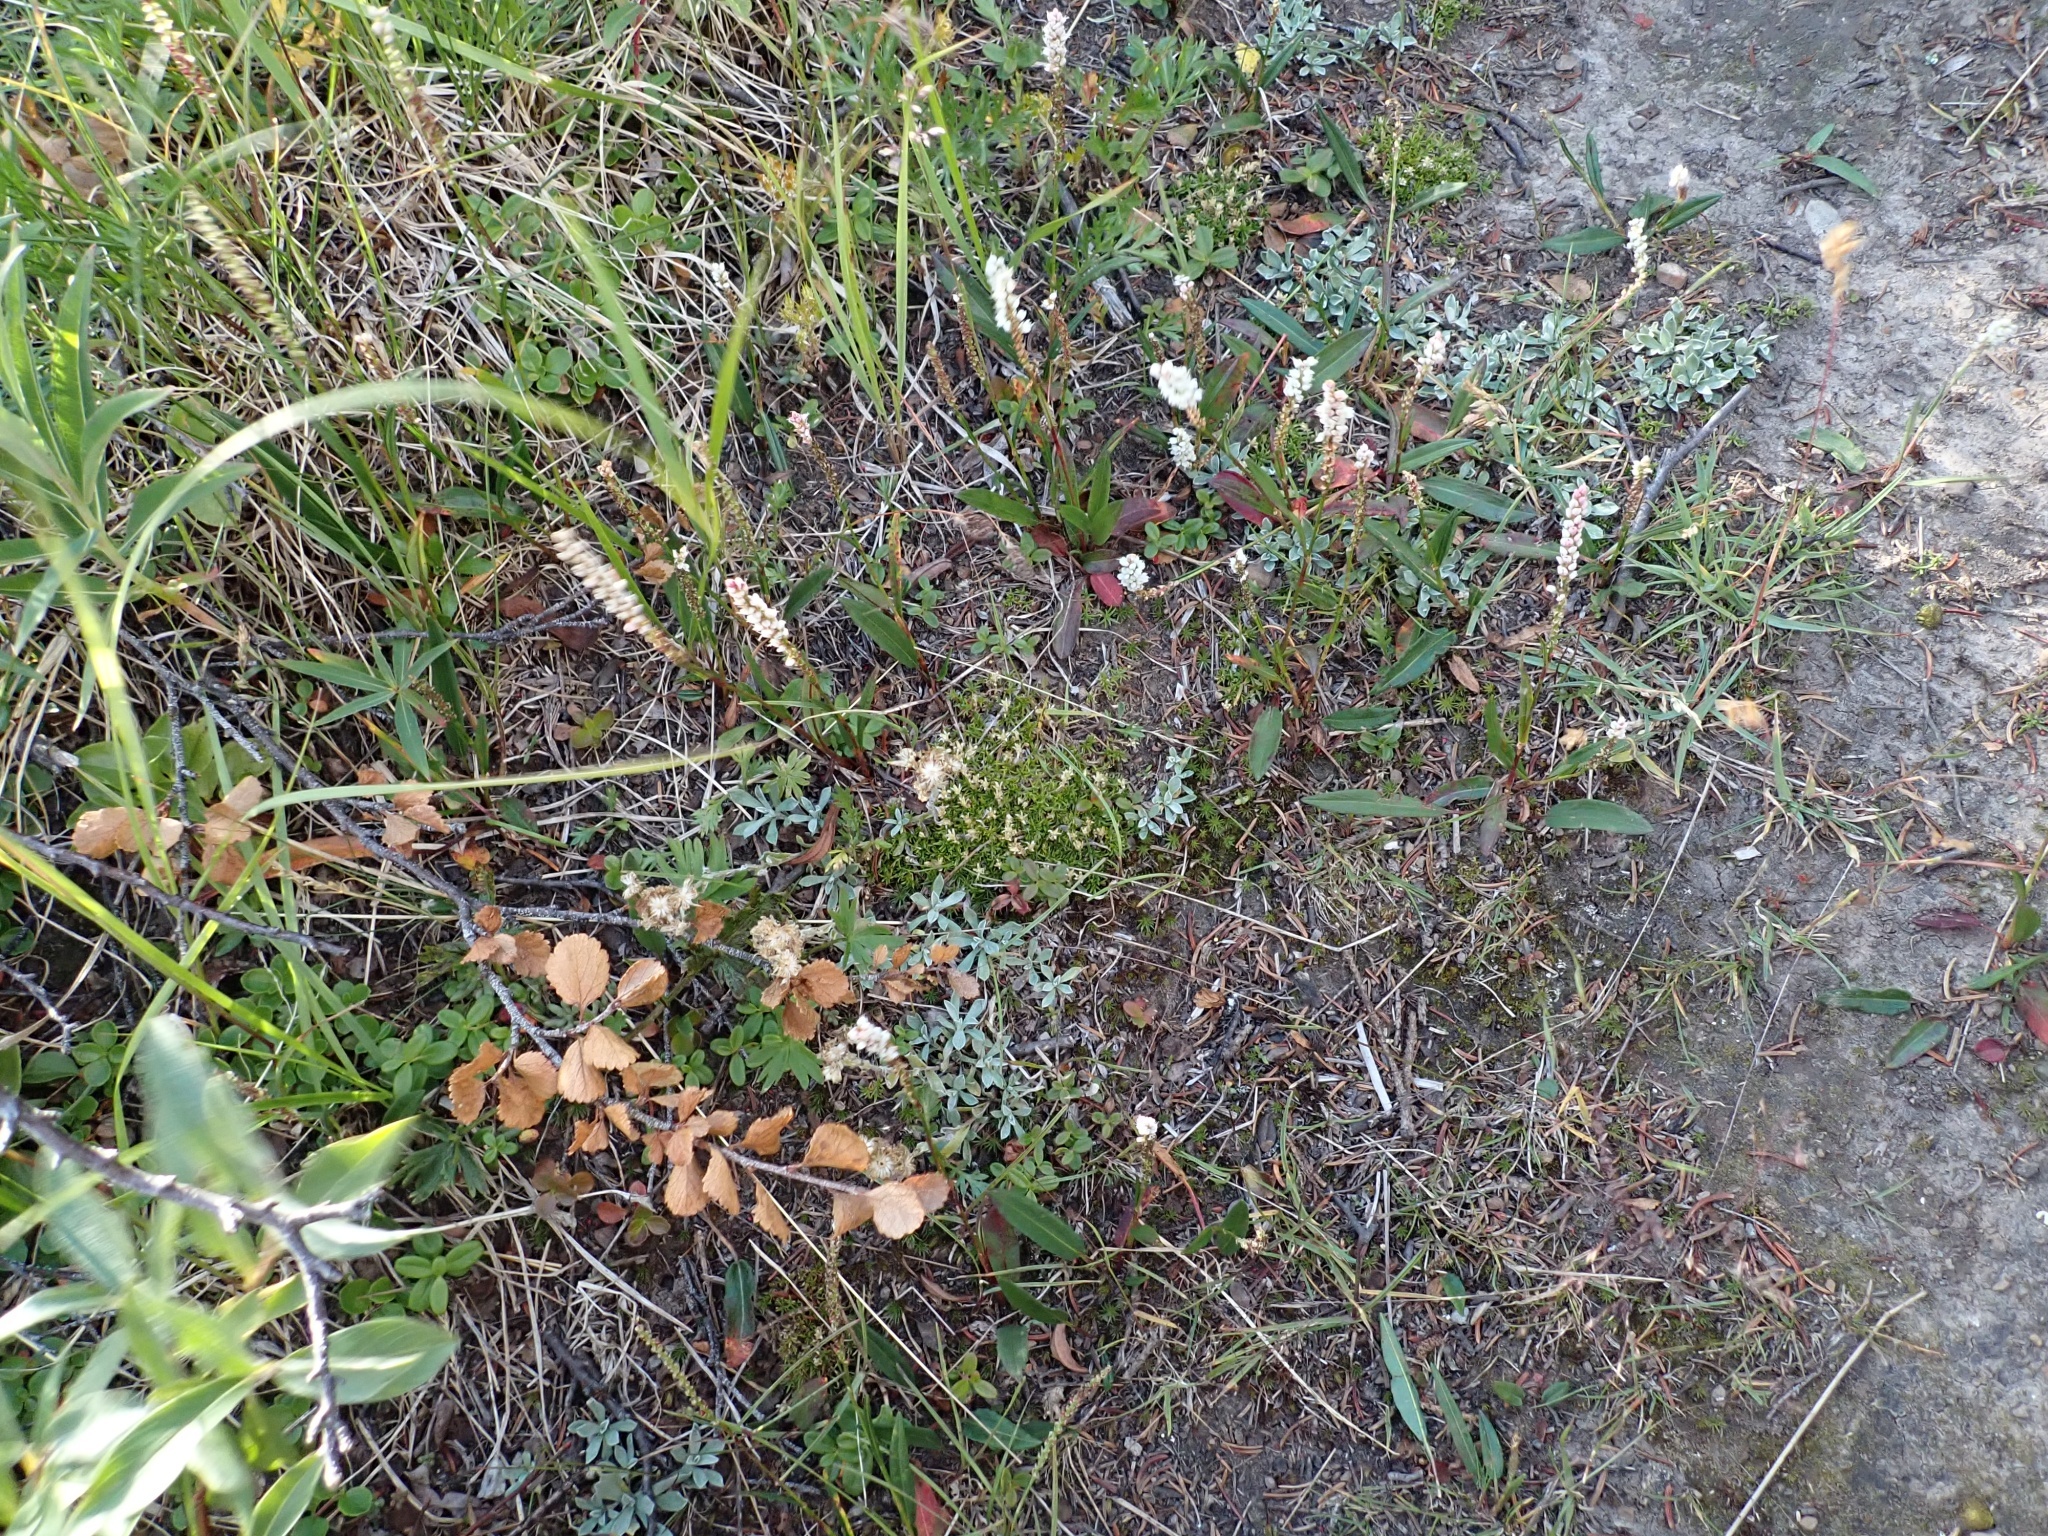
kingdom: Plantae
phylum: Tracheophyta
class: Magnoliopsida
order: Caryophyllales
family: Caryophyllaceae
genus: Cherleria
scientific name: Cherleria biflora
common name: Mountain sandwort
